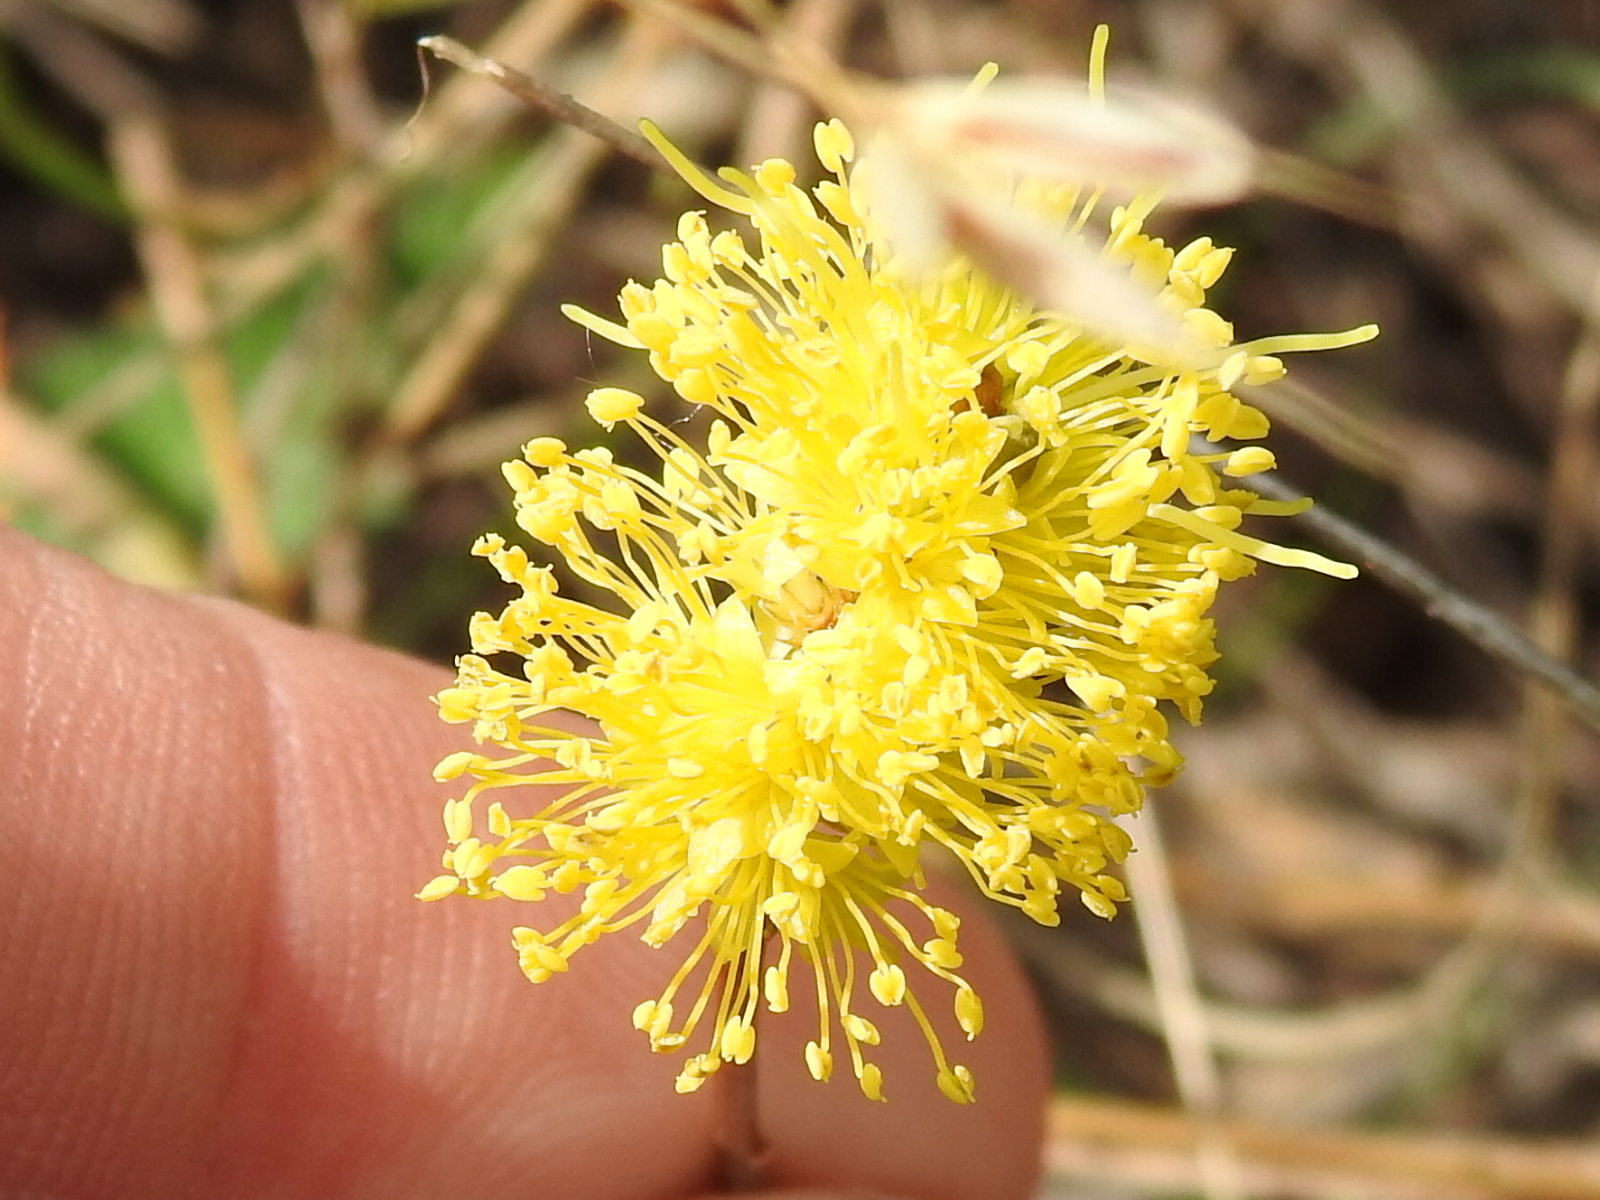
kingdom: Plantae
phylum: Tracheophyta
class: Magnoliopsida
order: Fabales
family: Fabaceae
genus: Neptunia
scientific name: Neptunia lutea
